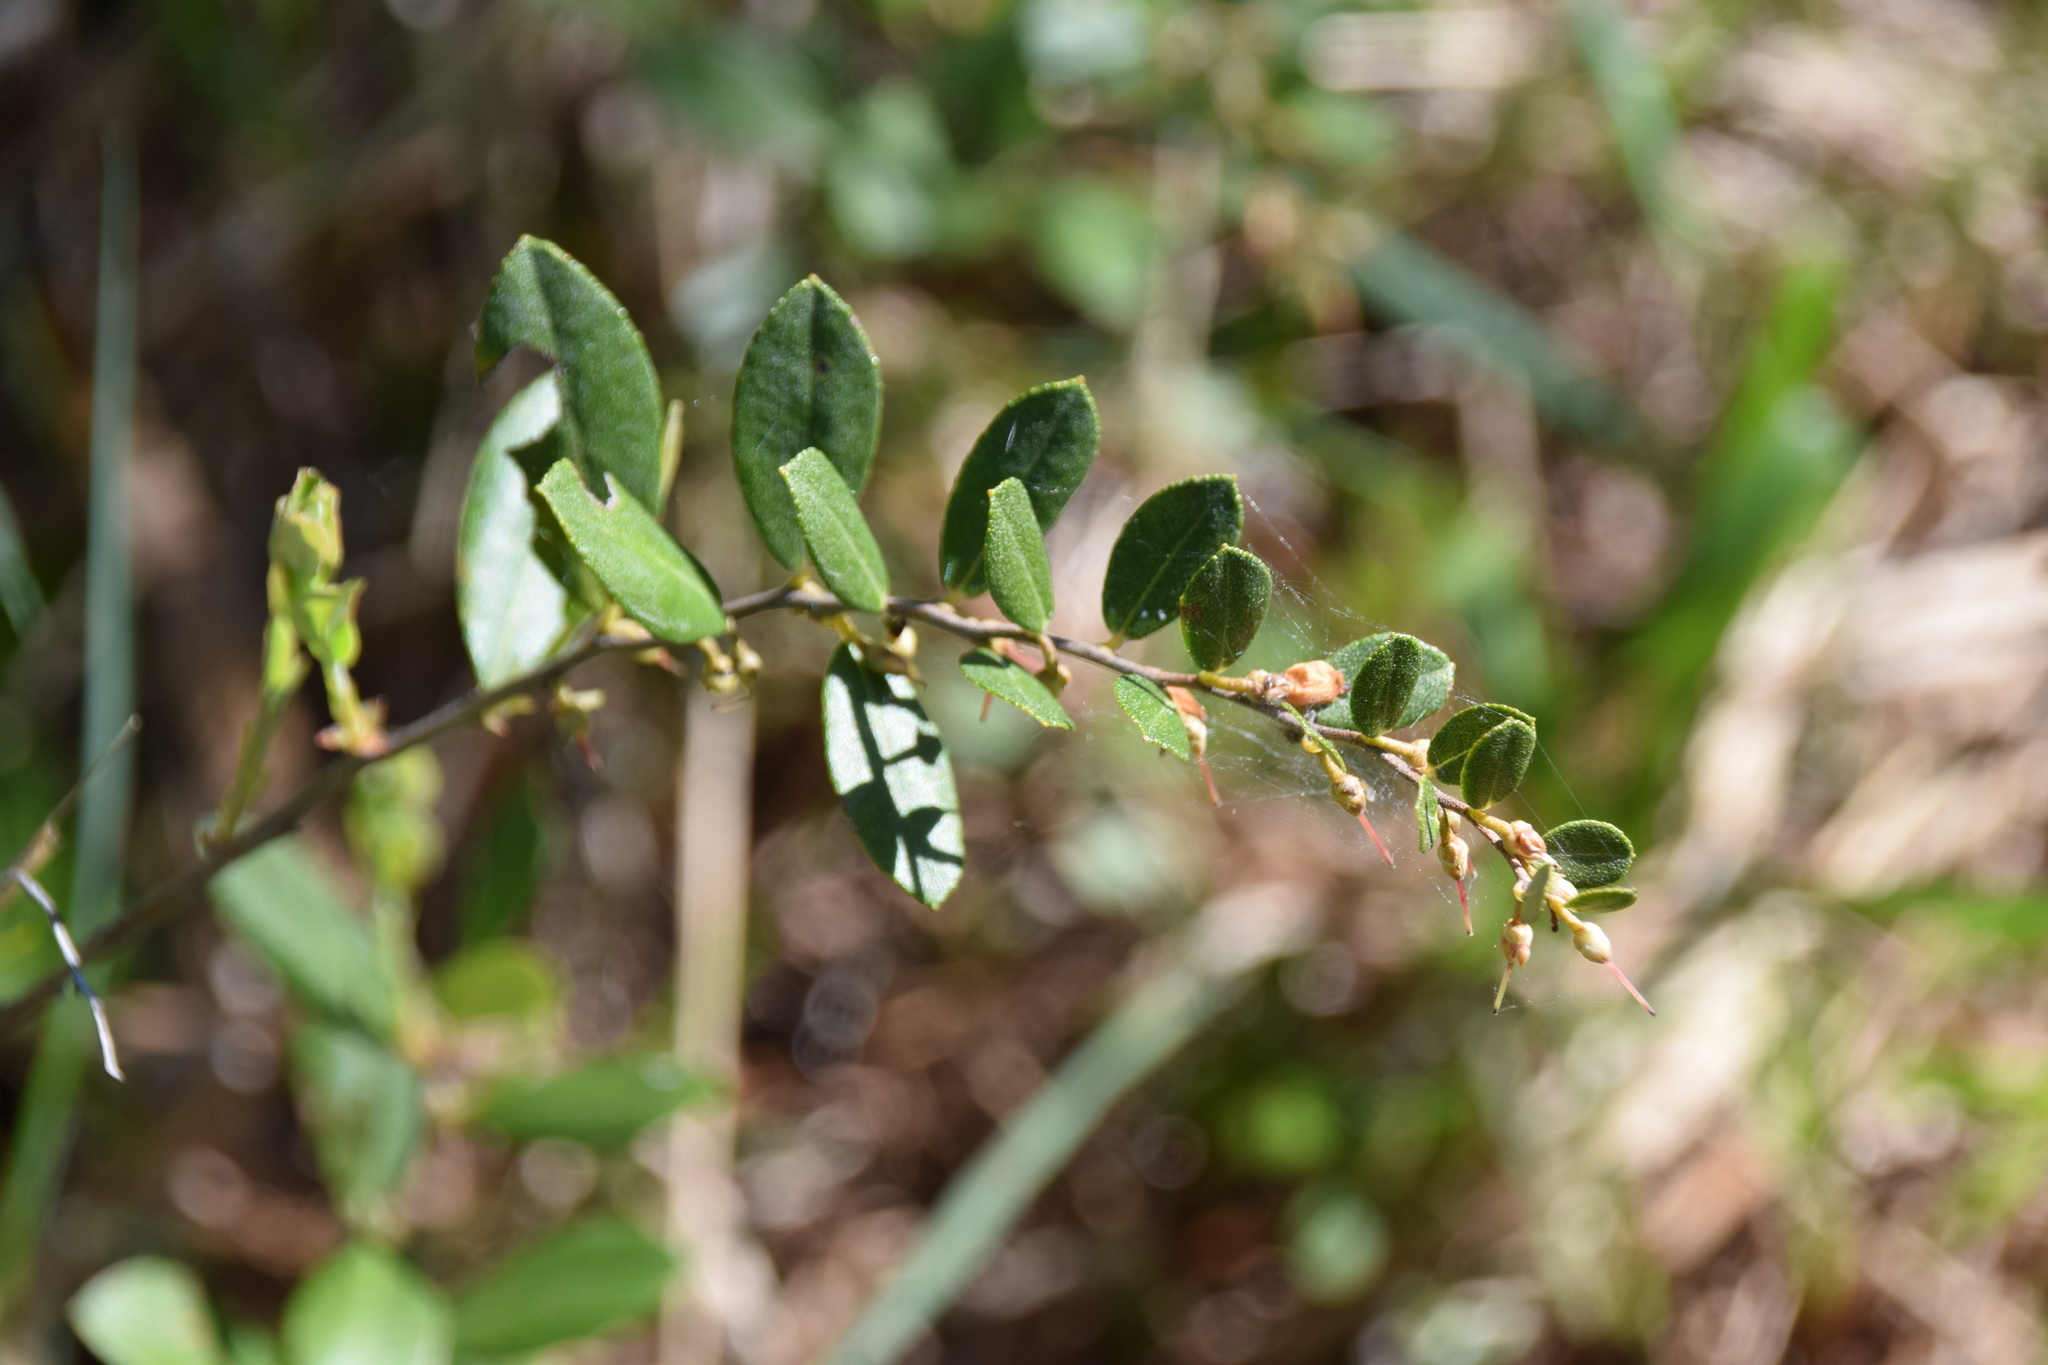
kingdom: Plantae
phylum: Tracheophyta
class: Magnoliopsida
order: Ericales
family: Ericaceae
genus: Chamaedaphne
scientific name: Chamaedaphne calyculata
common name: Leatherleaf
